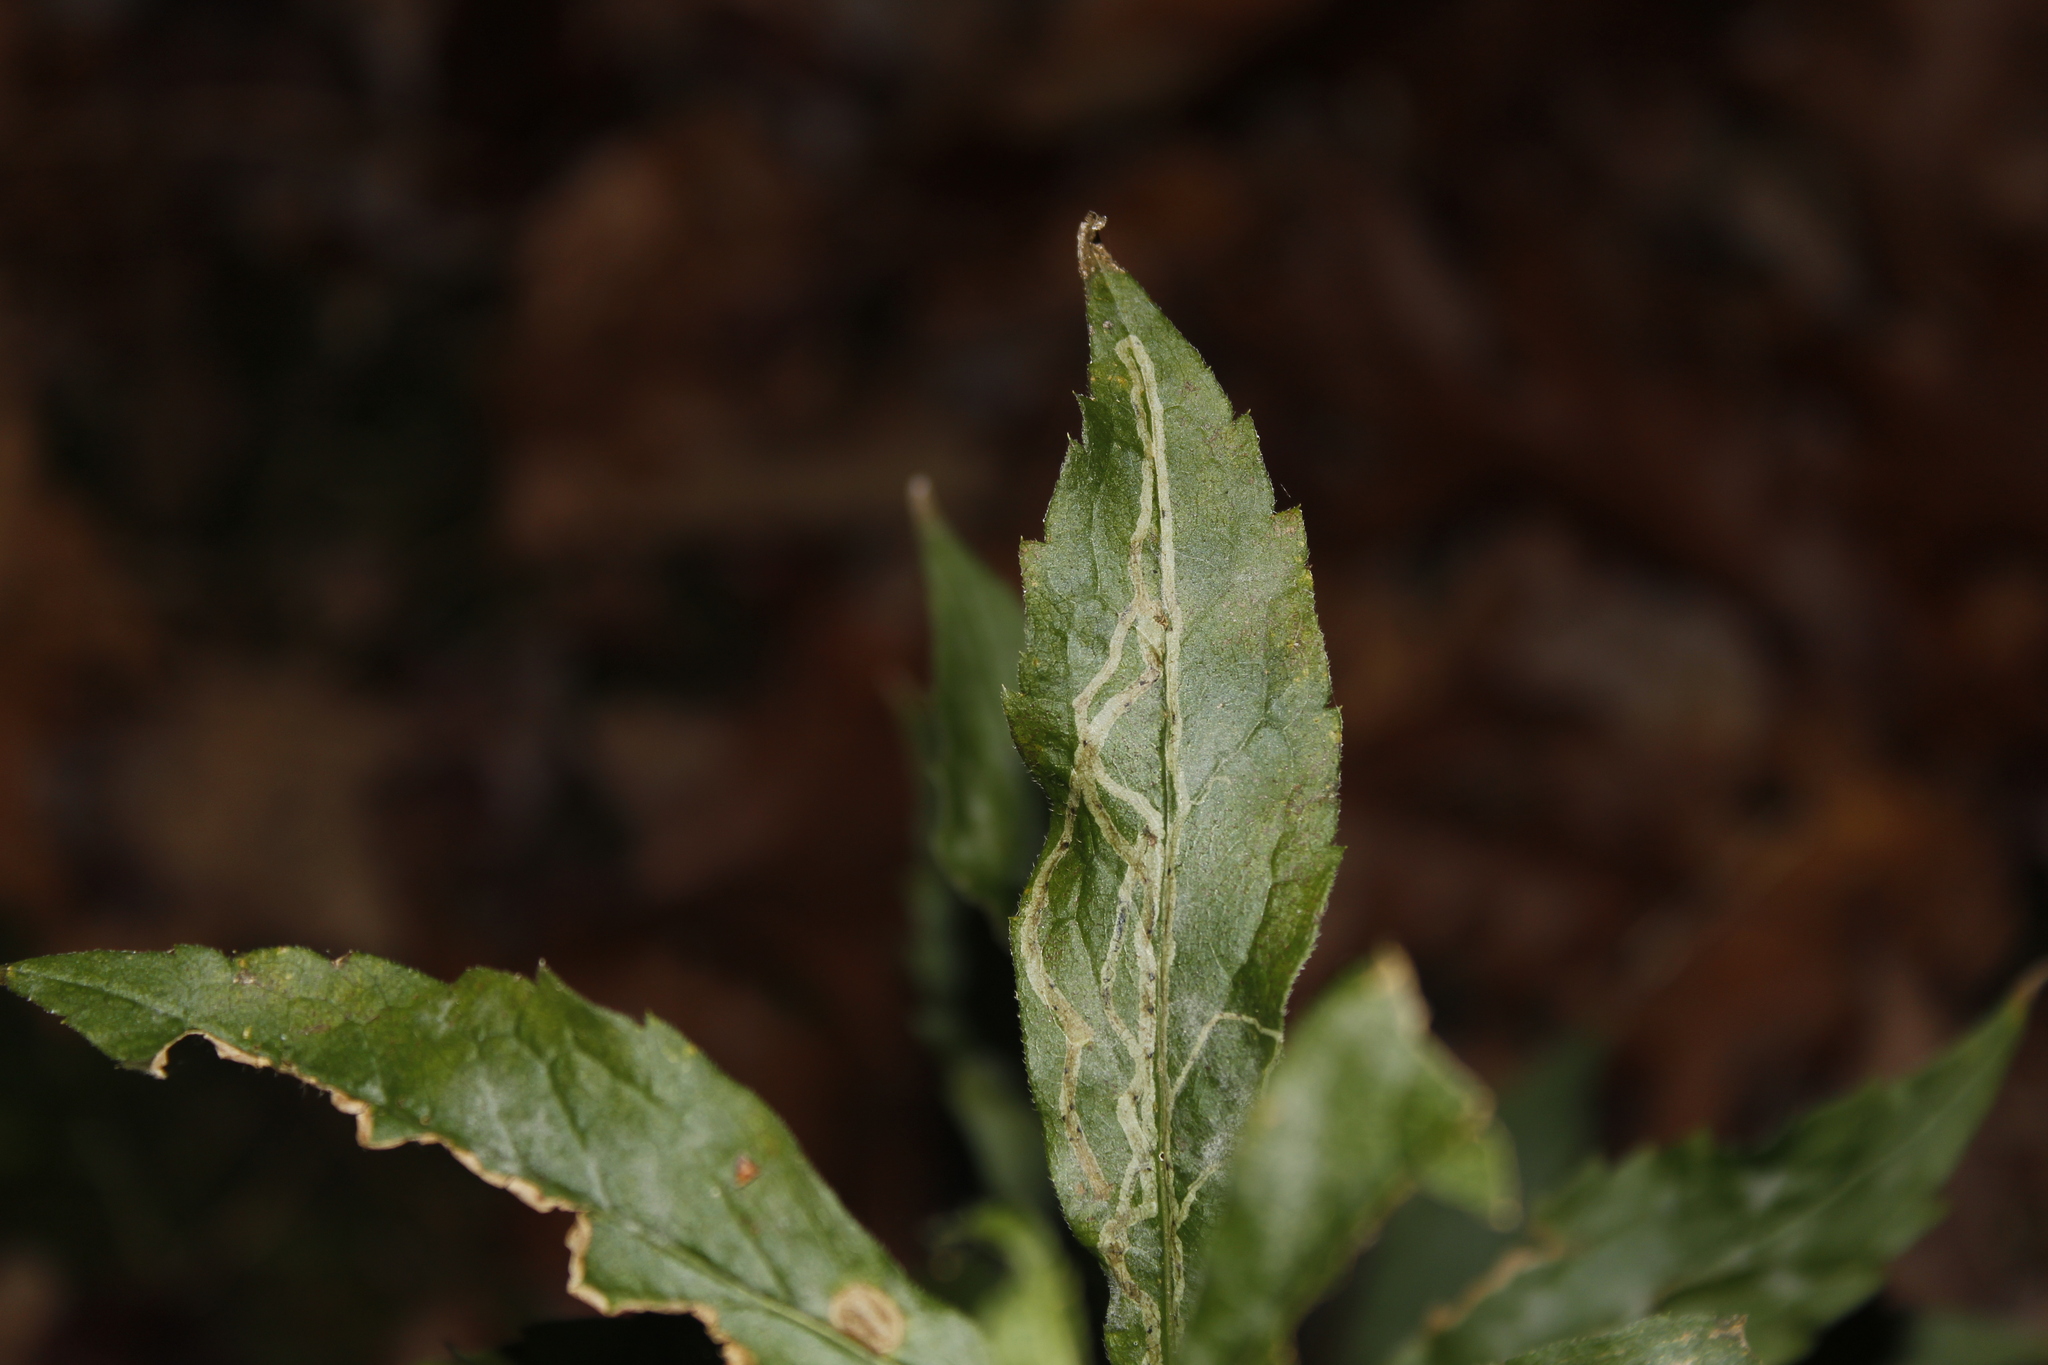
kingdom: Animalia
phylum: Arthropoda
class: Insecta
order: Diptera
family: Agromyzidae
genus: Ophiomyia
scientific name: Ophiomyia maura
